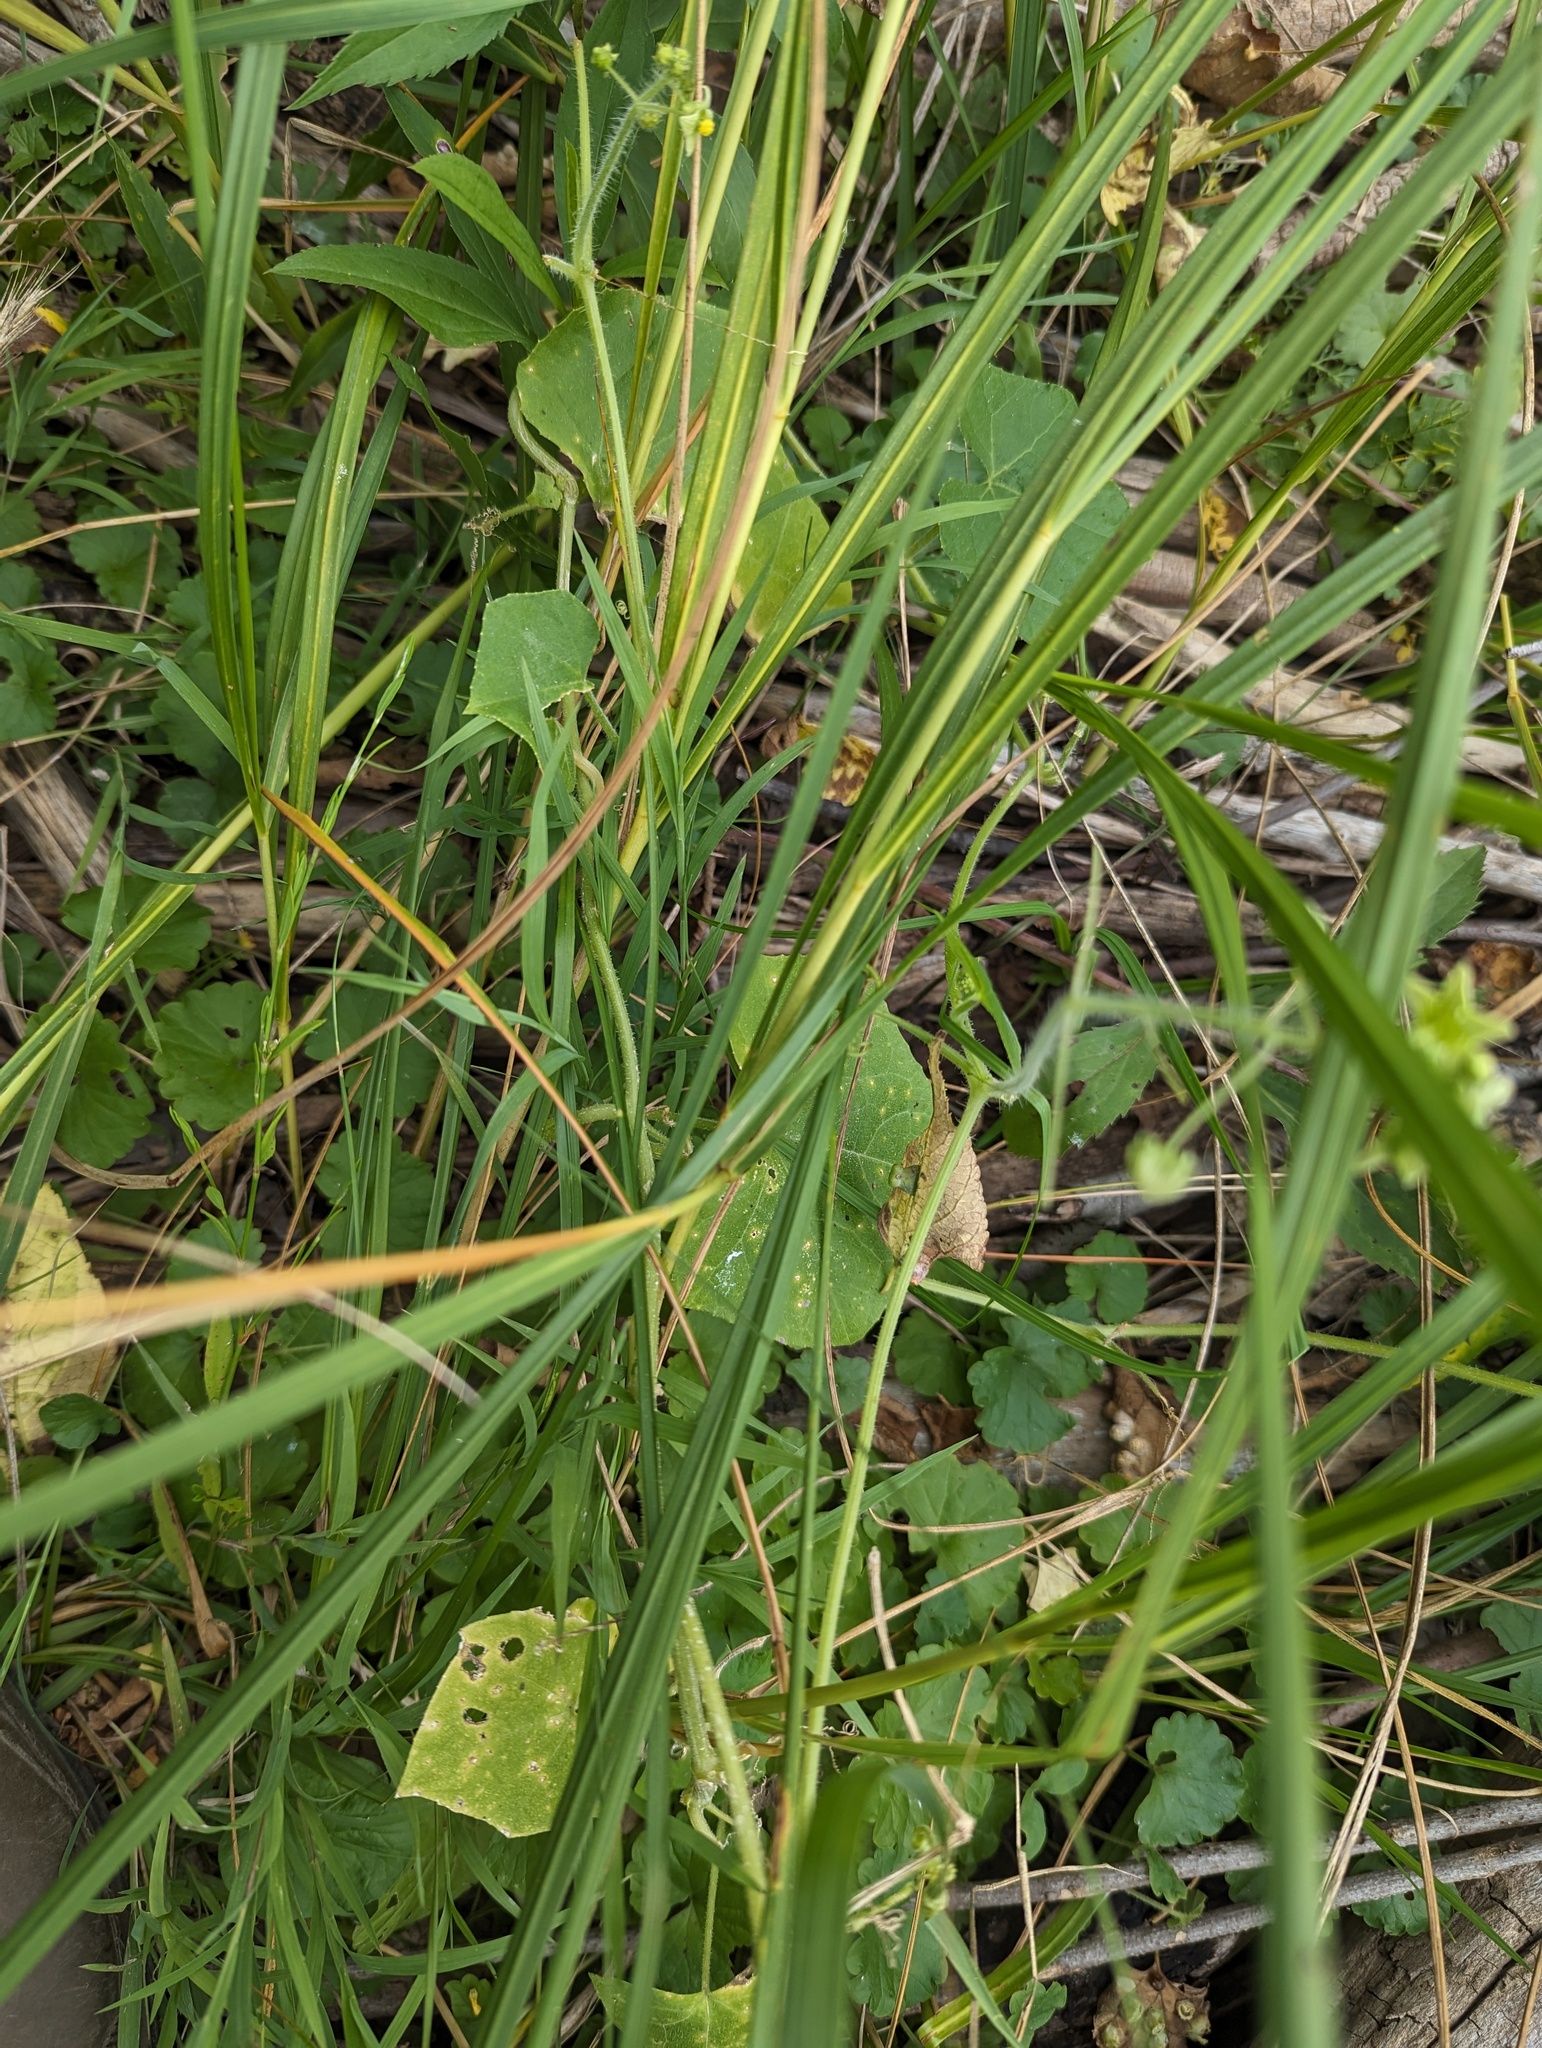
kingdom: Plantae
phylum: Tracheophyta
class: Magnoliopsida
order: Cucurbitales
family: Cucurbitaceae
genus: Sicyos
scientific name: Sicyos angulatus
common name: Angled burr cucumber
